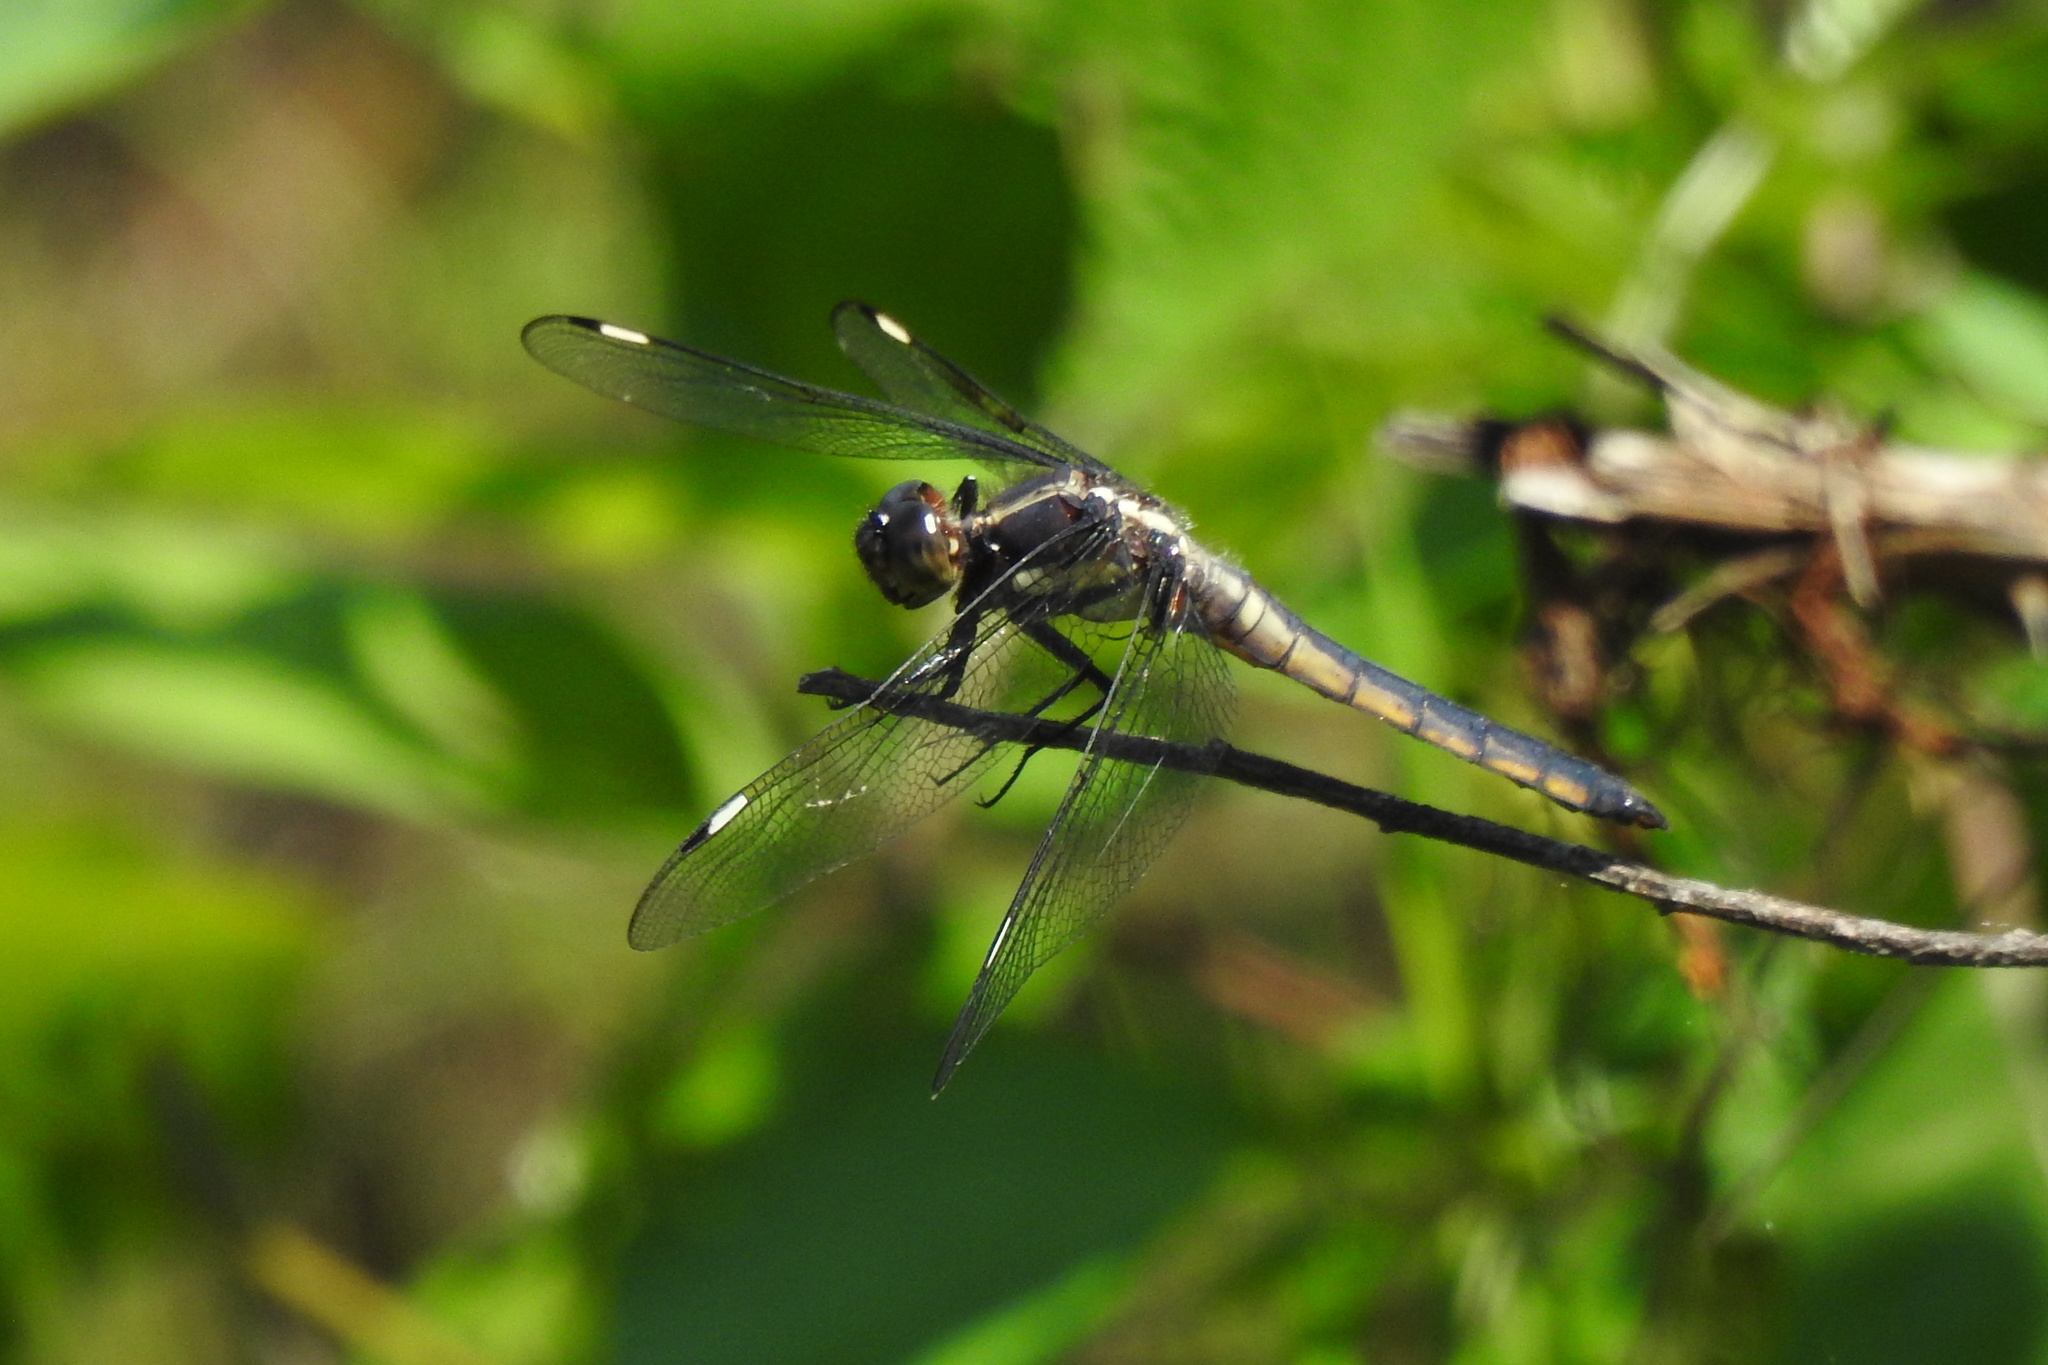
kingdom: Animalia
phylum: Arthropoda
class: Insecta
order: Odonata
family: Libellulidae
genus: Libellula
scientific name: Libellula cyanea
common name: Spangled skimmer
